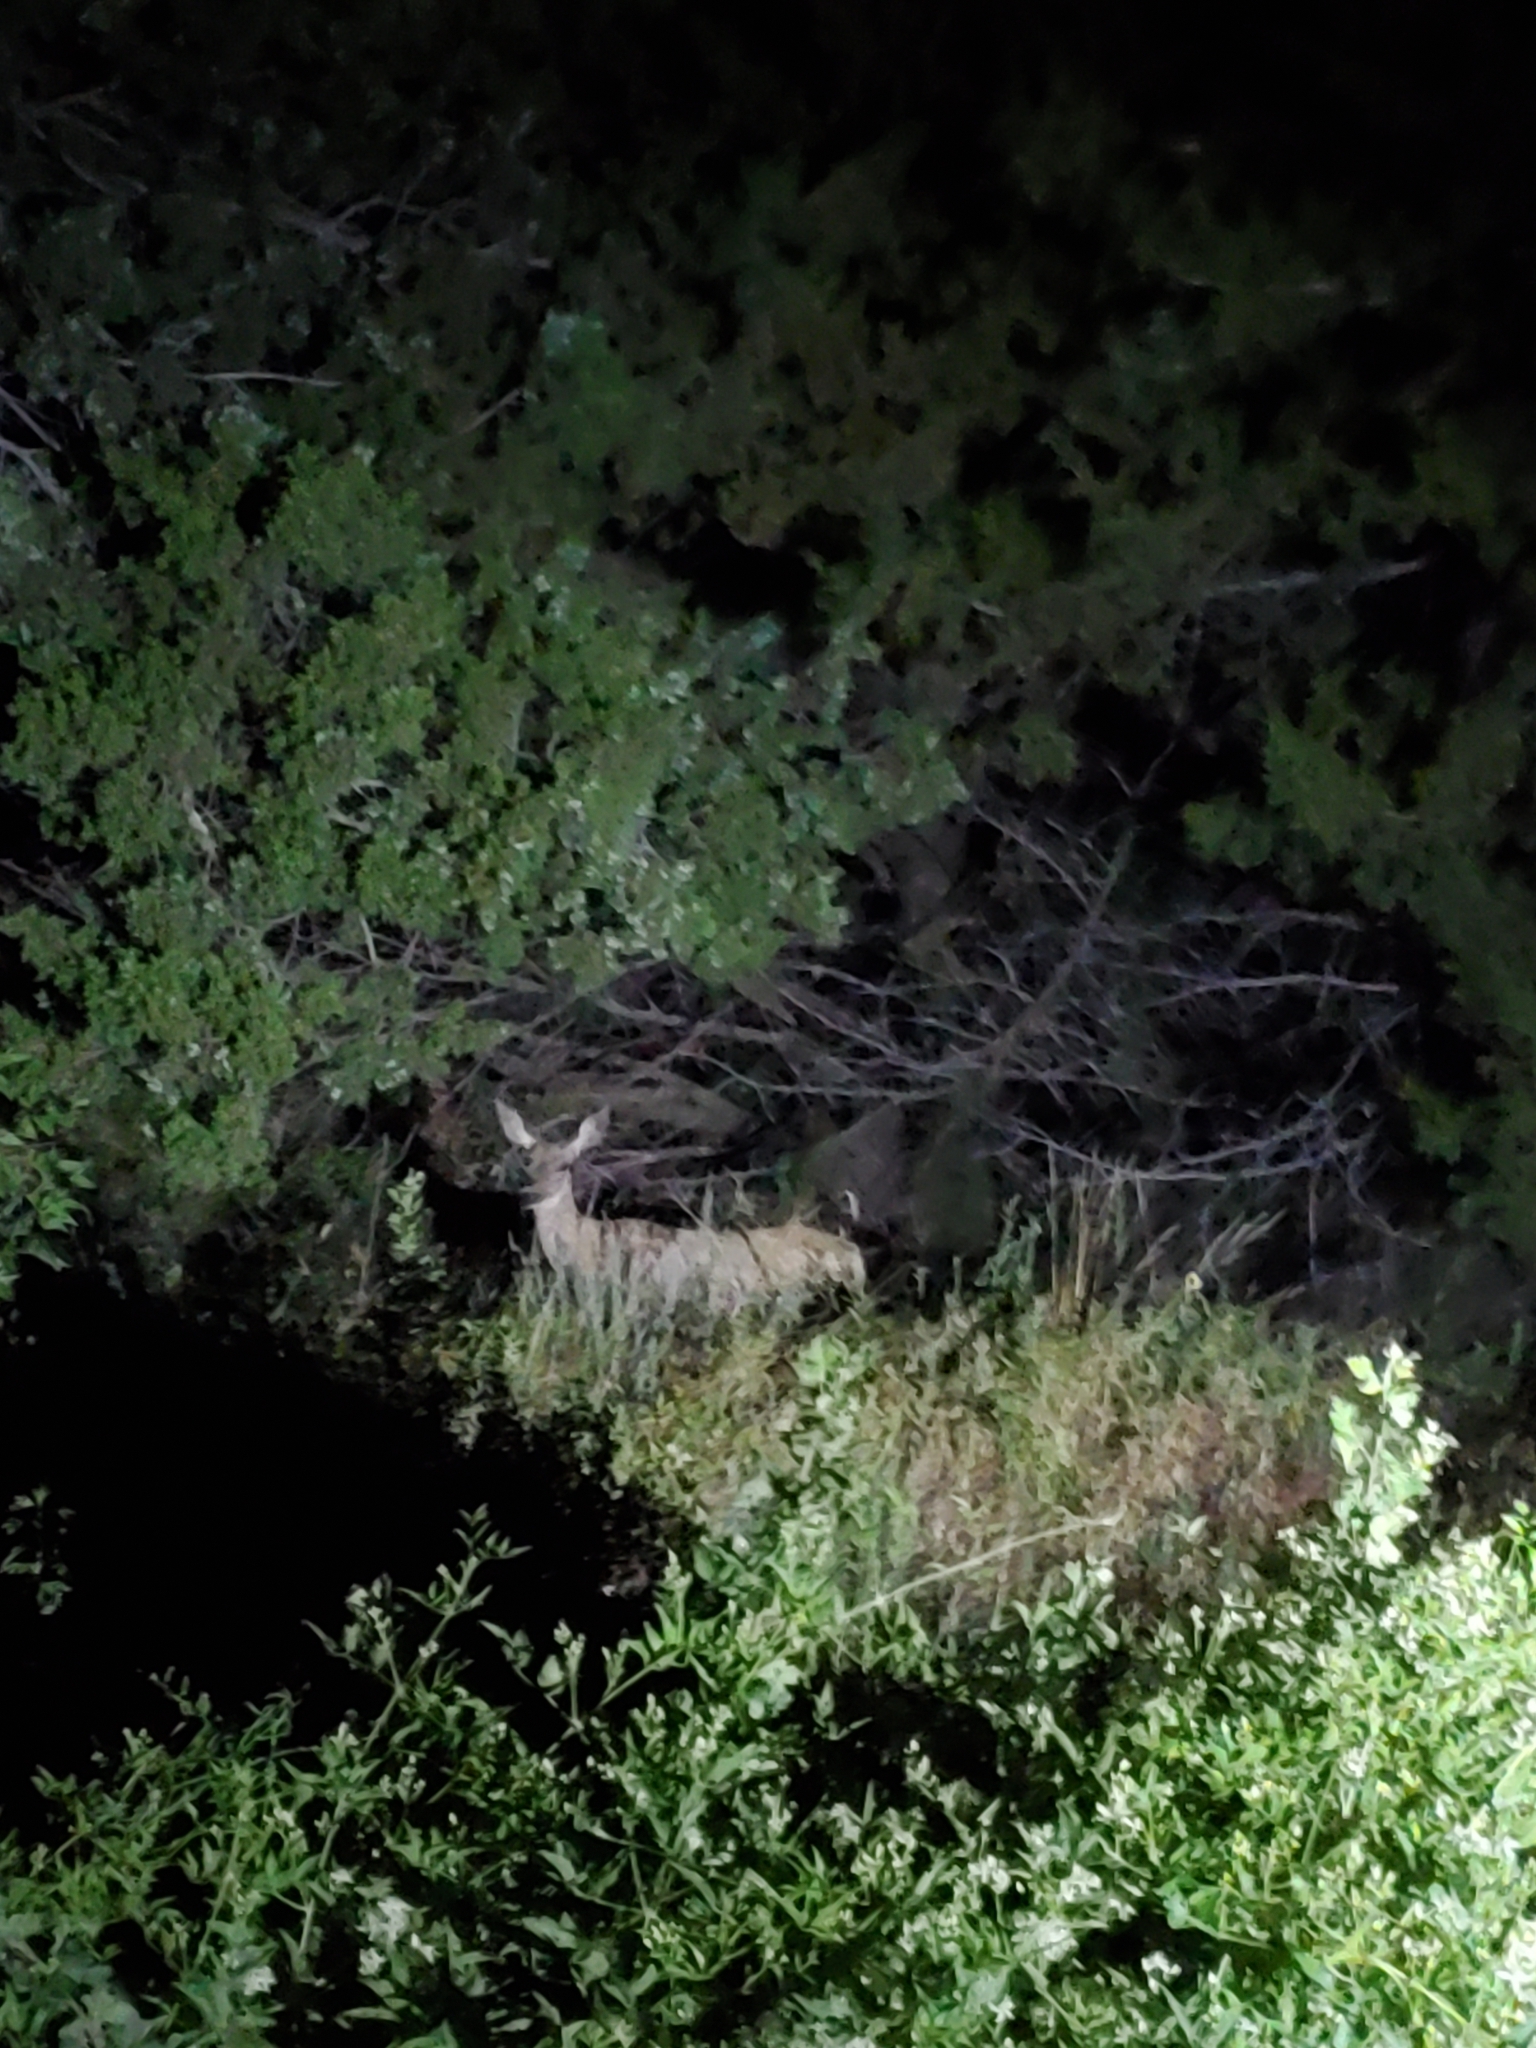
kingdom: Animalia
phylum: Chordata
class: Mammalia
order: Artiodactyla
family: Cervidae
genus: Odocoileus
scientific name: Odocoileus hemionus
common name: Mule deer
